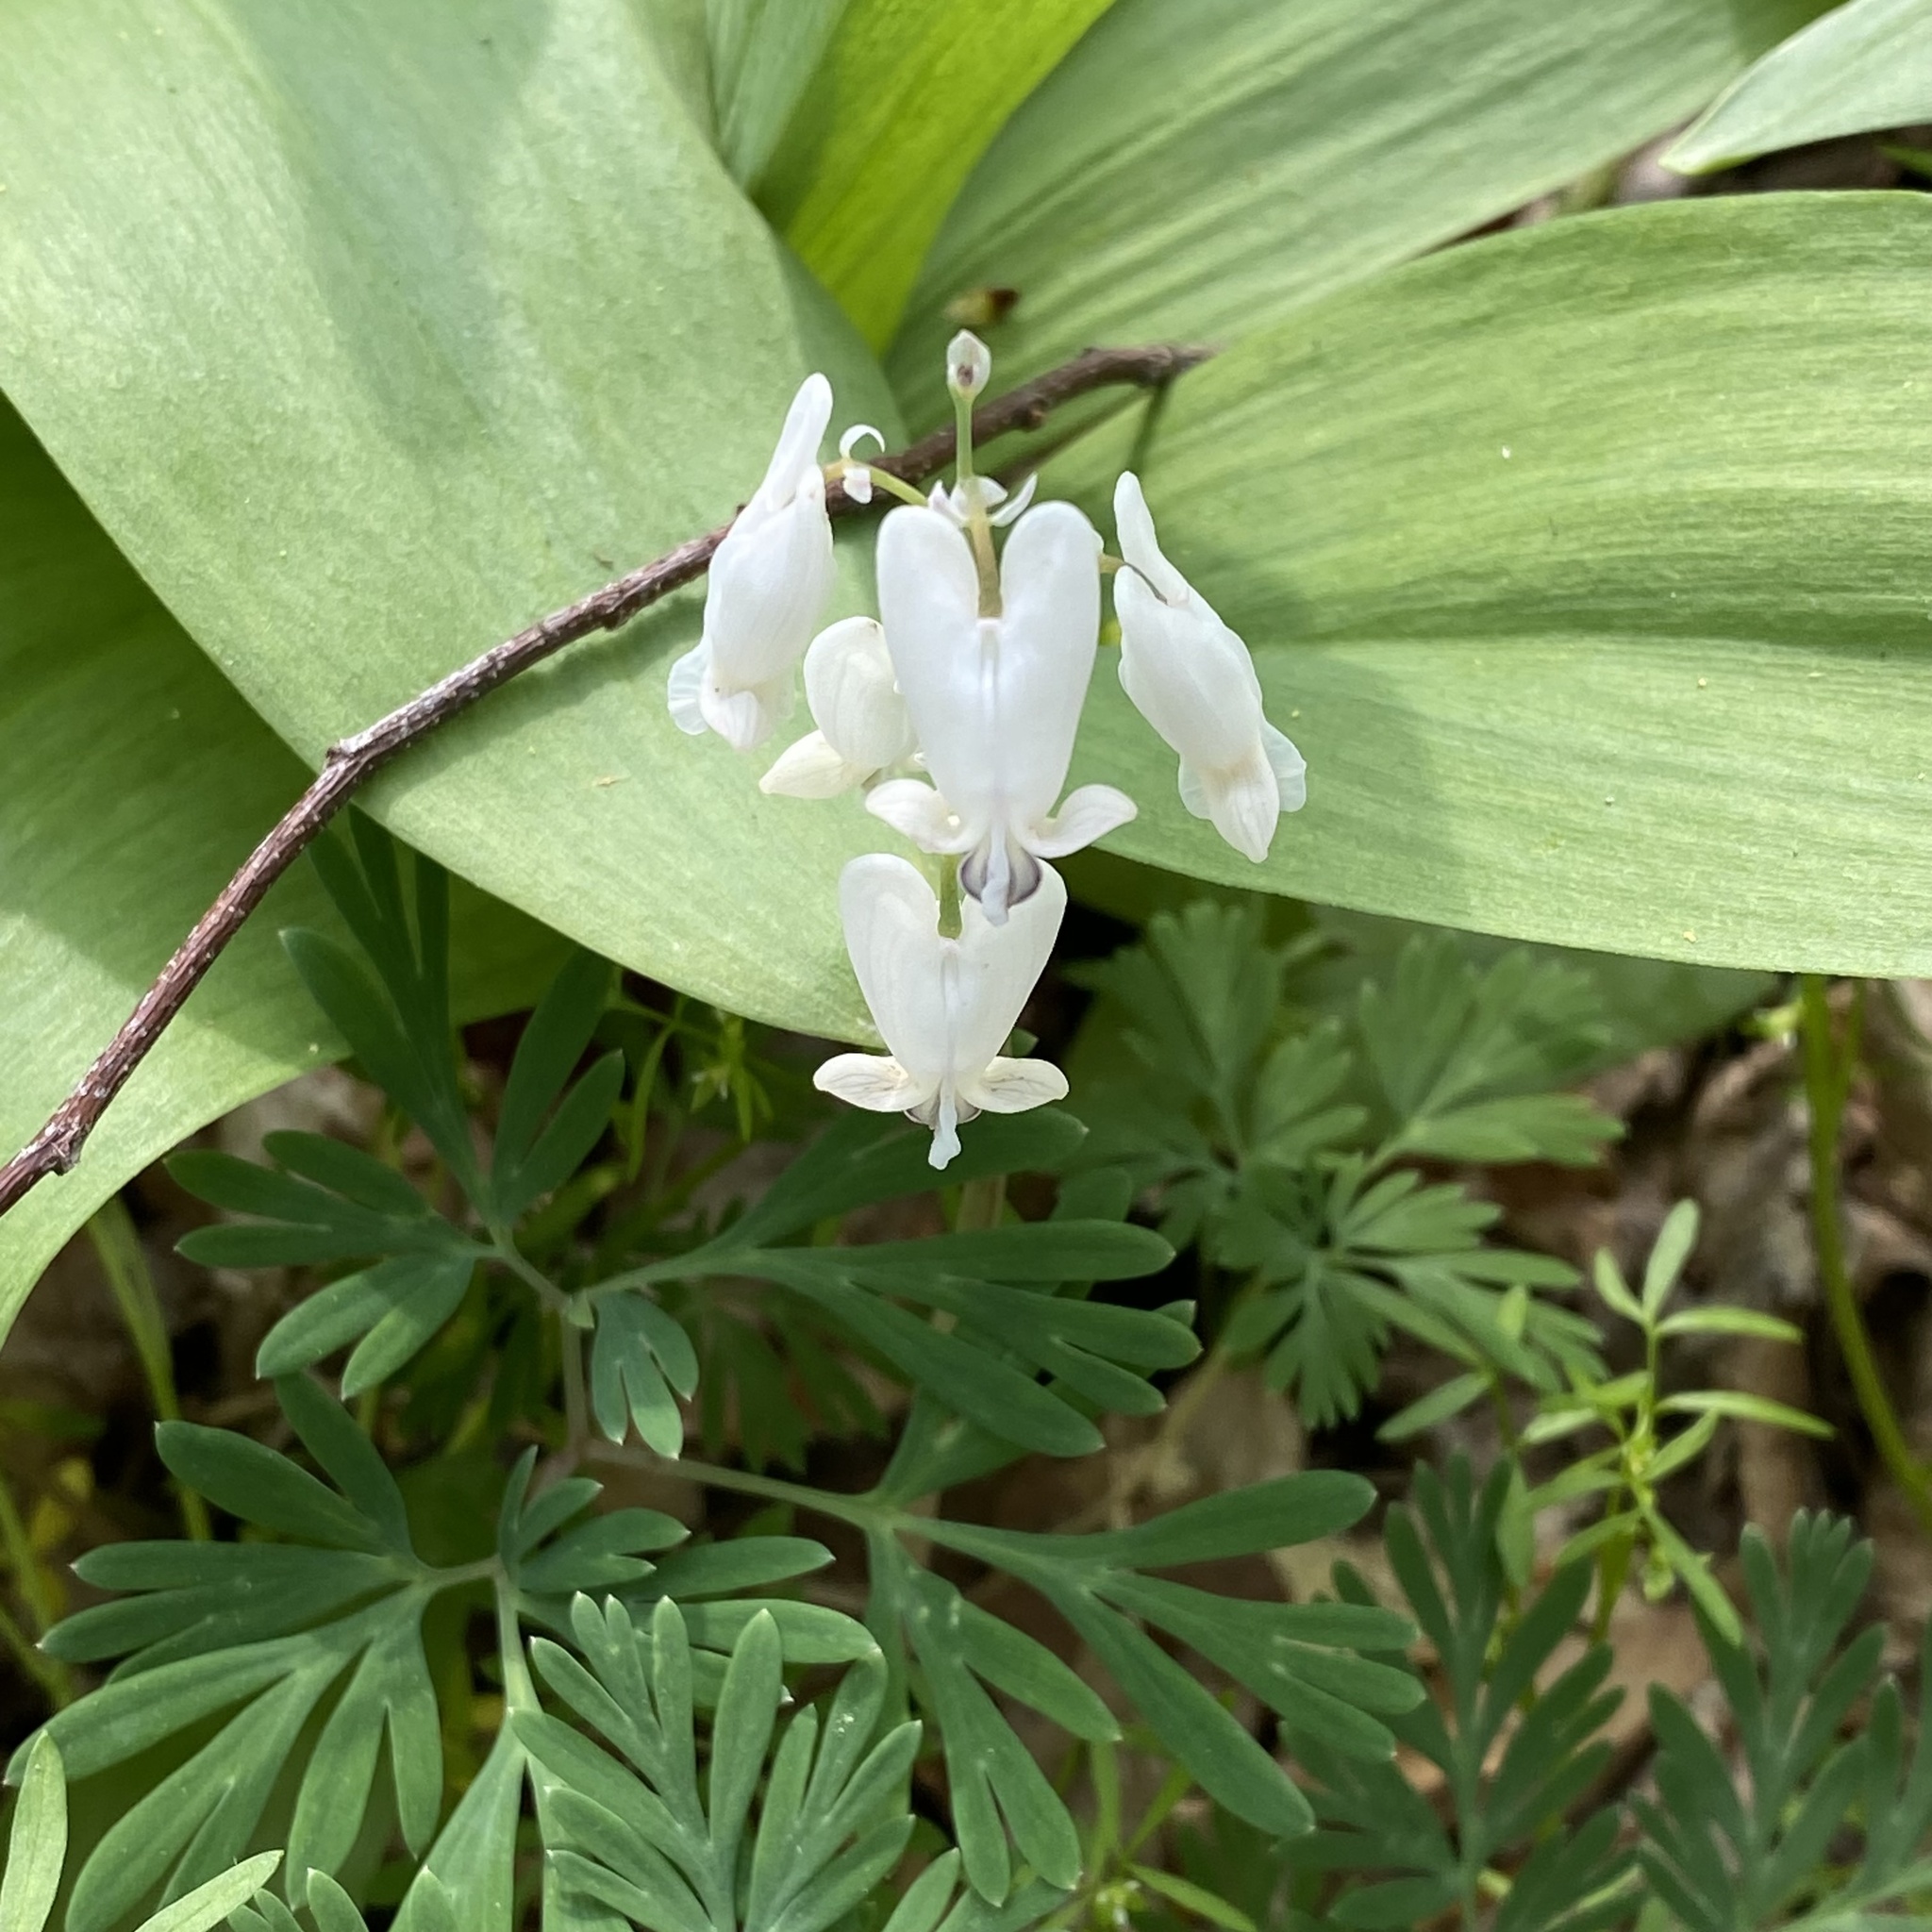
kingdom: Plantae
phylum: Tracheophyta
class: Magnoliopsida
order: Ranunculales
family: Papaveraceae
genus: Dicentra
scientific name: Dicentra canadensis
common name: Squirrel-corn
